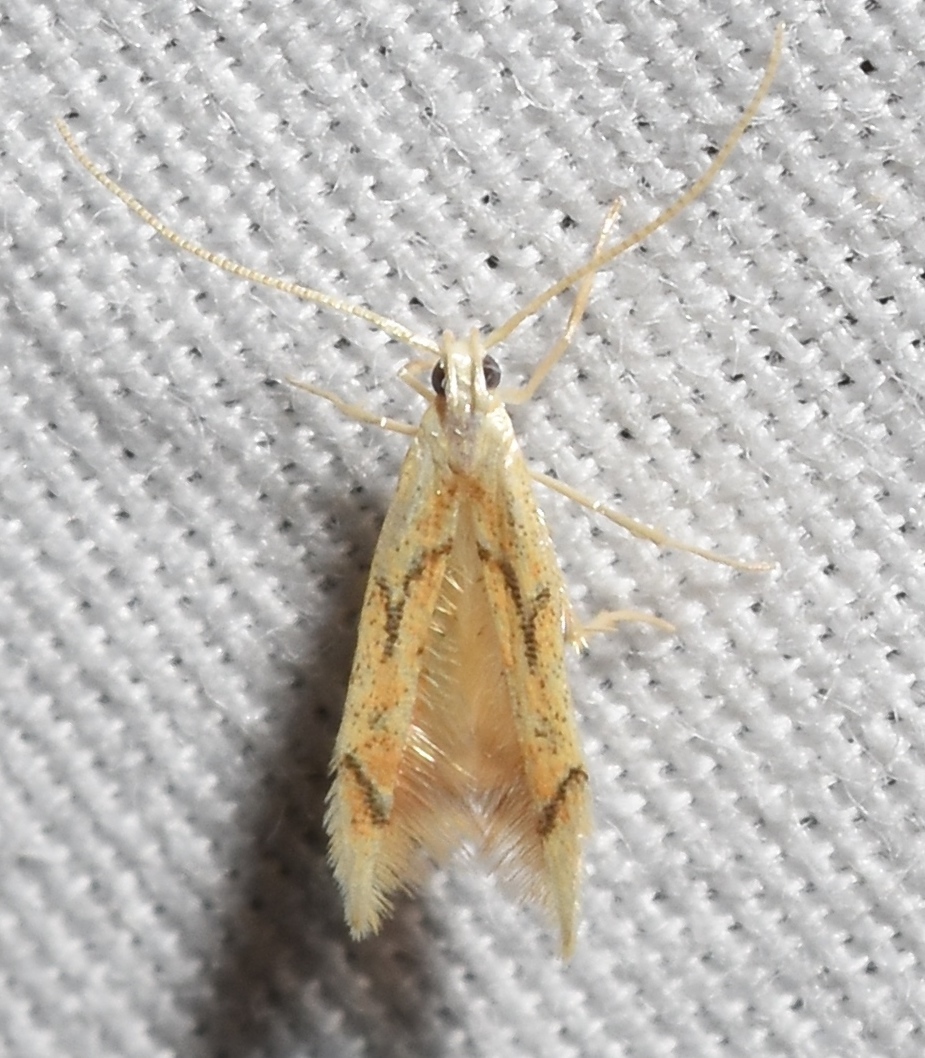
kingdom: Animalia
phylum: Arthropoda
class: Insecta
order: Lepidoptera
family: Epimarptidae
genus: Idioglossa
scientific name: Idioglossa miraculosa
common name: Miraculous idiogloss moth
